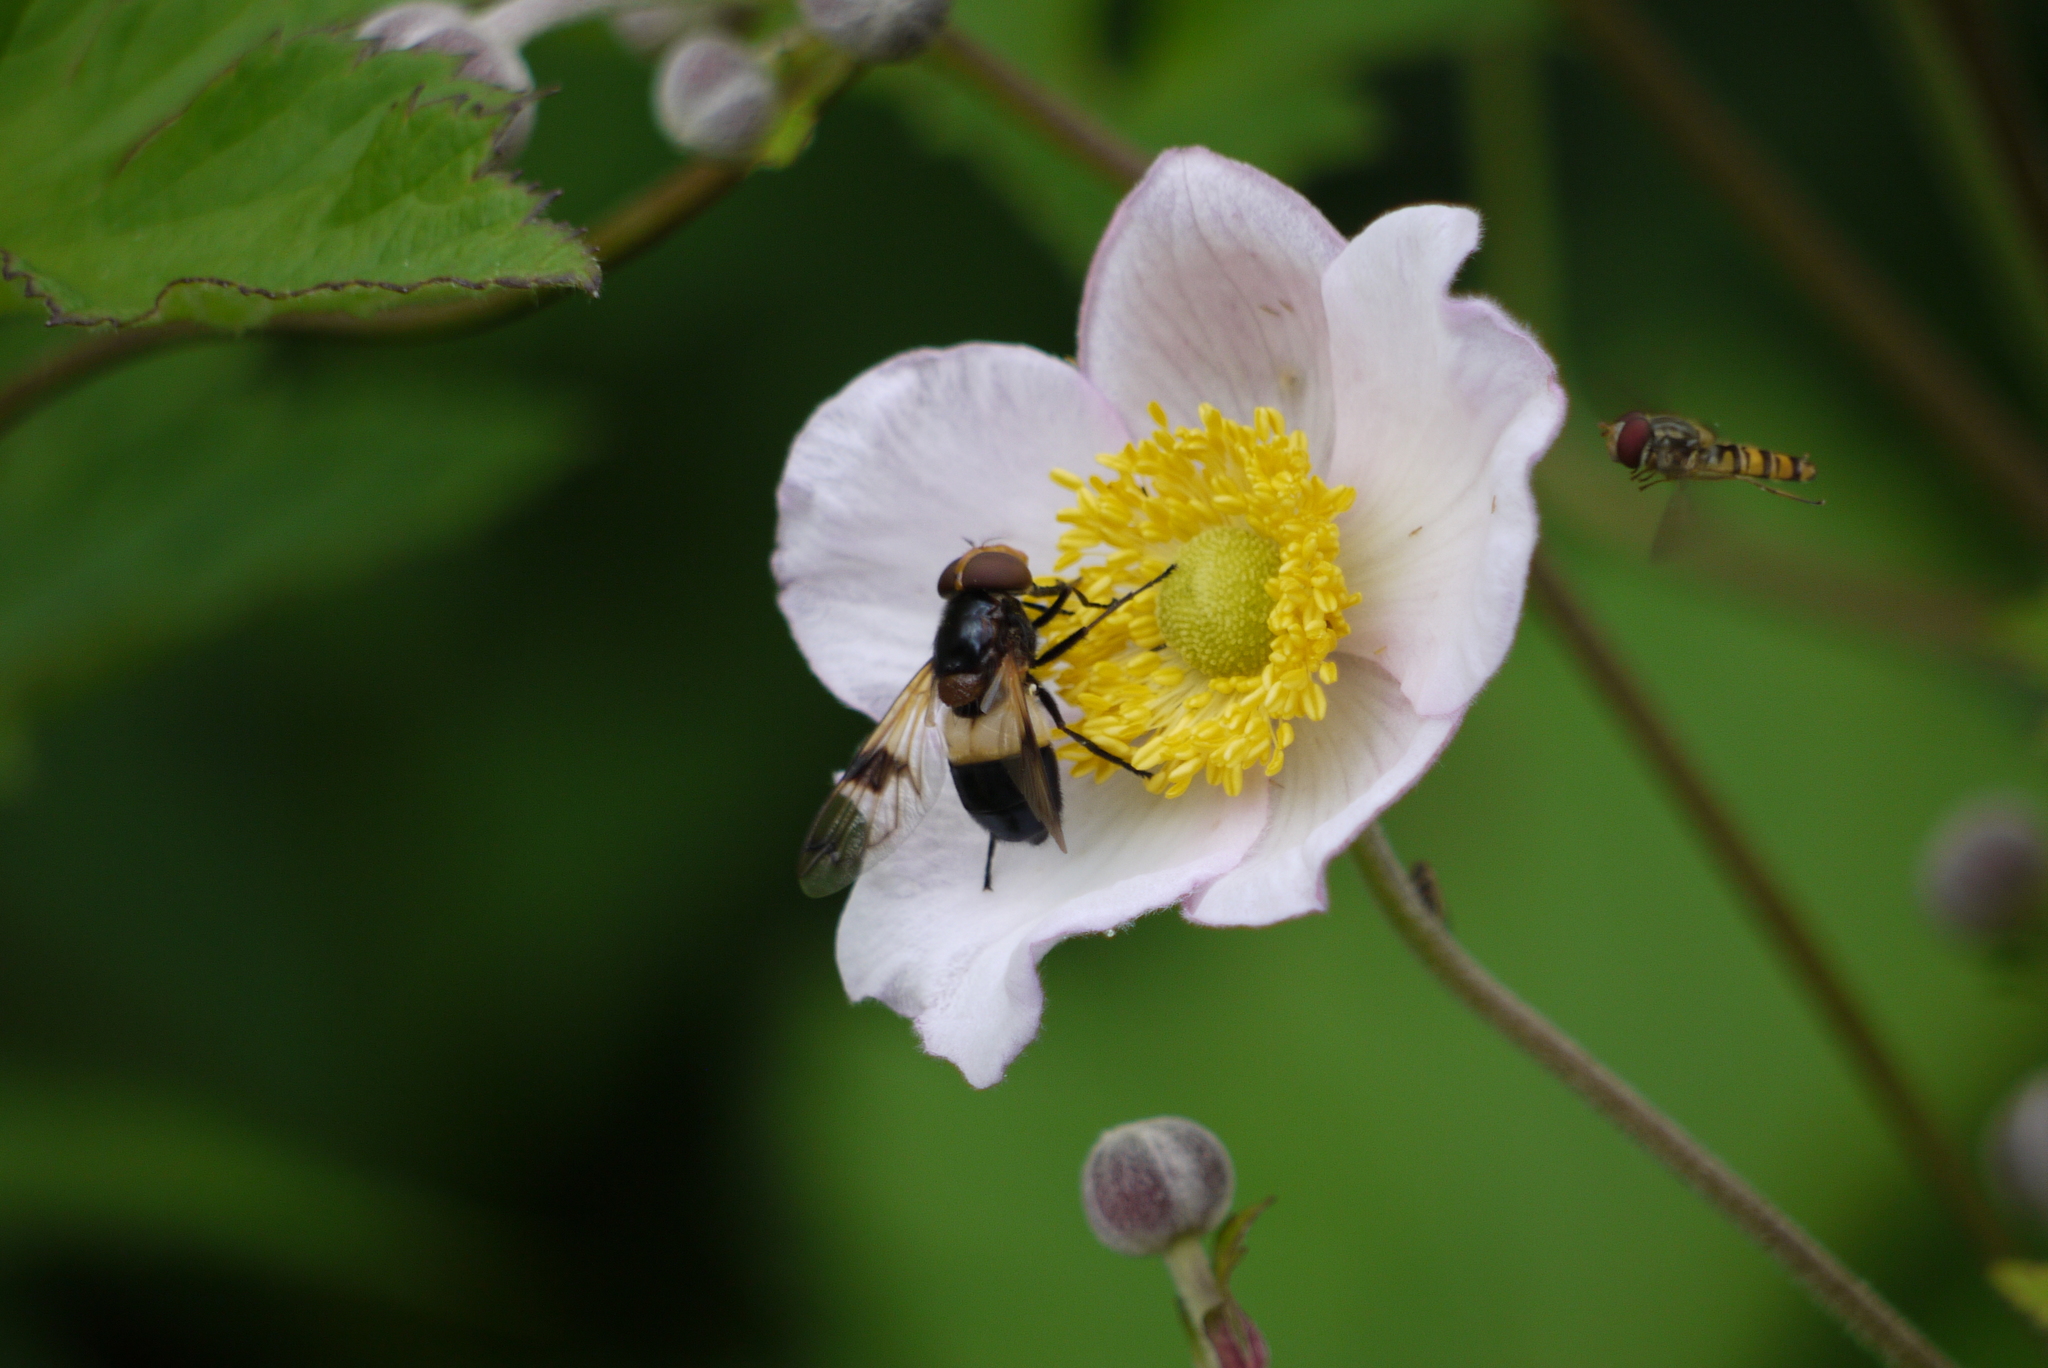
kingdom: Animalia
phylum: Arthropoda
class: Insecta
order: Diptera
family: Syrphidae
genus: Volucella
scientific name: Volucella pellucens
